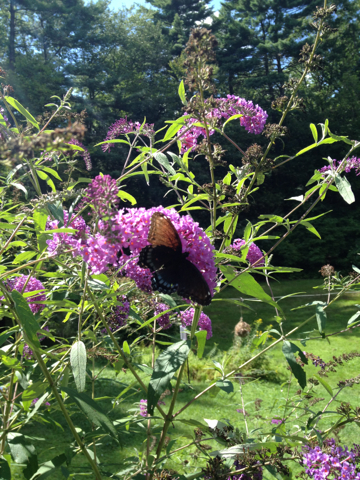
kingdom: Animalia
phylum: Arthropoda
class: Insecta
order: Lepidoptera
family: Nymphalidae
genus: Limenitis
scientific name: Limenitis arthemis
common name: Red-spotted admiral
